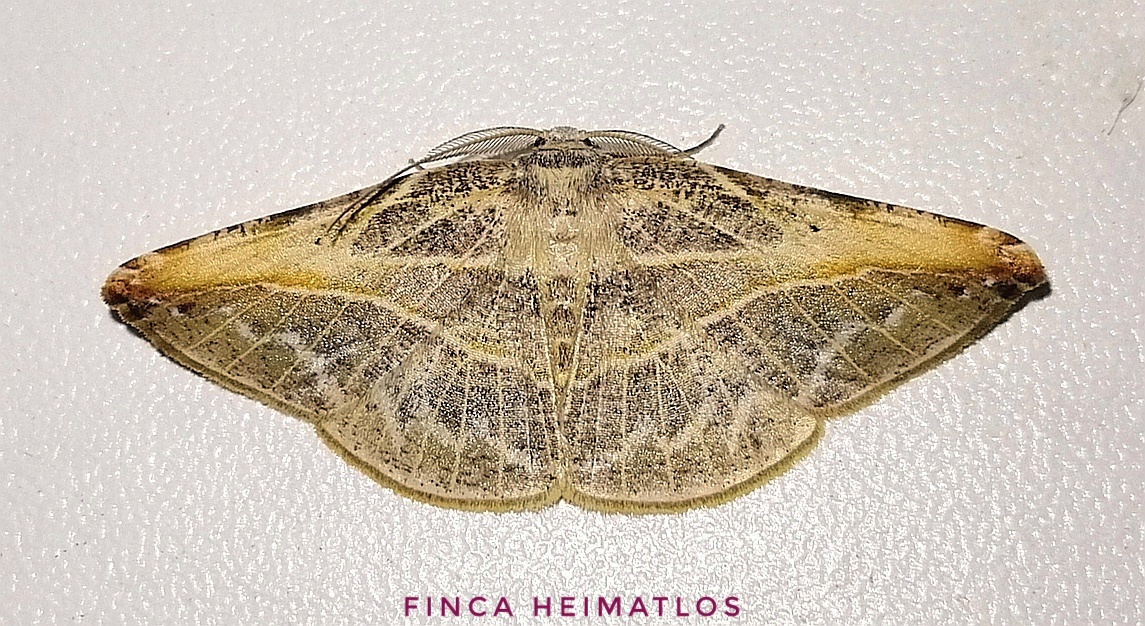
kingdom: Animalia
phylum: Arthropoda
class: Insecta
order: Lepidoptera
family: Geometridae
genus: Eusarca
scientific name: Eusarca minucia
